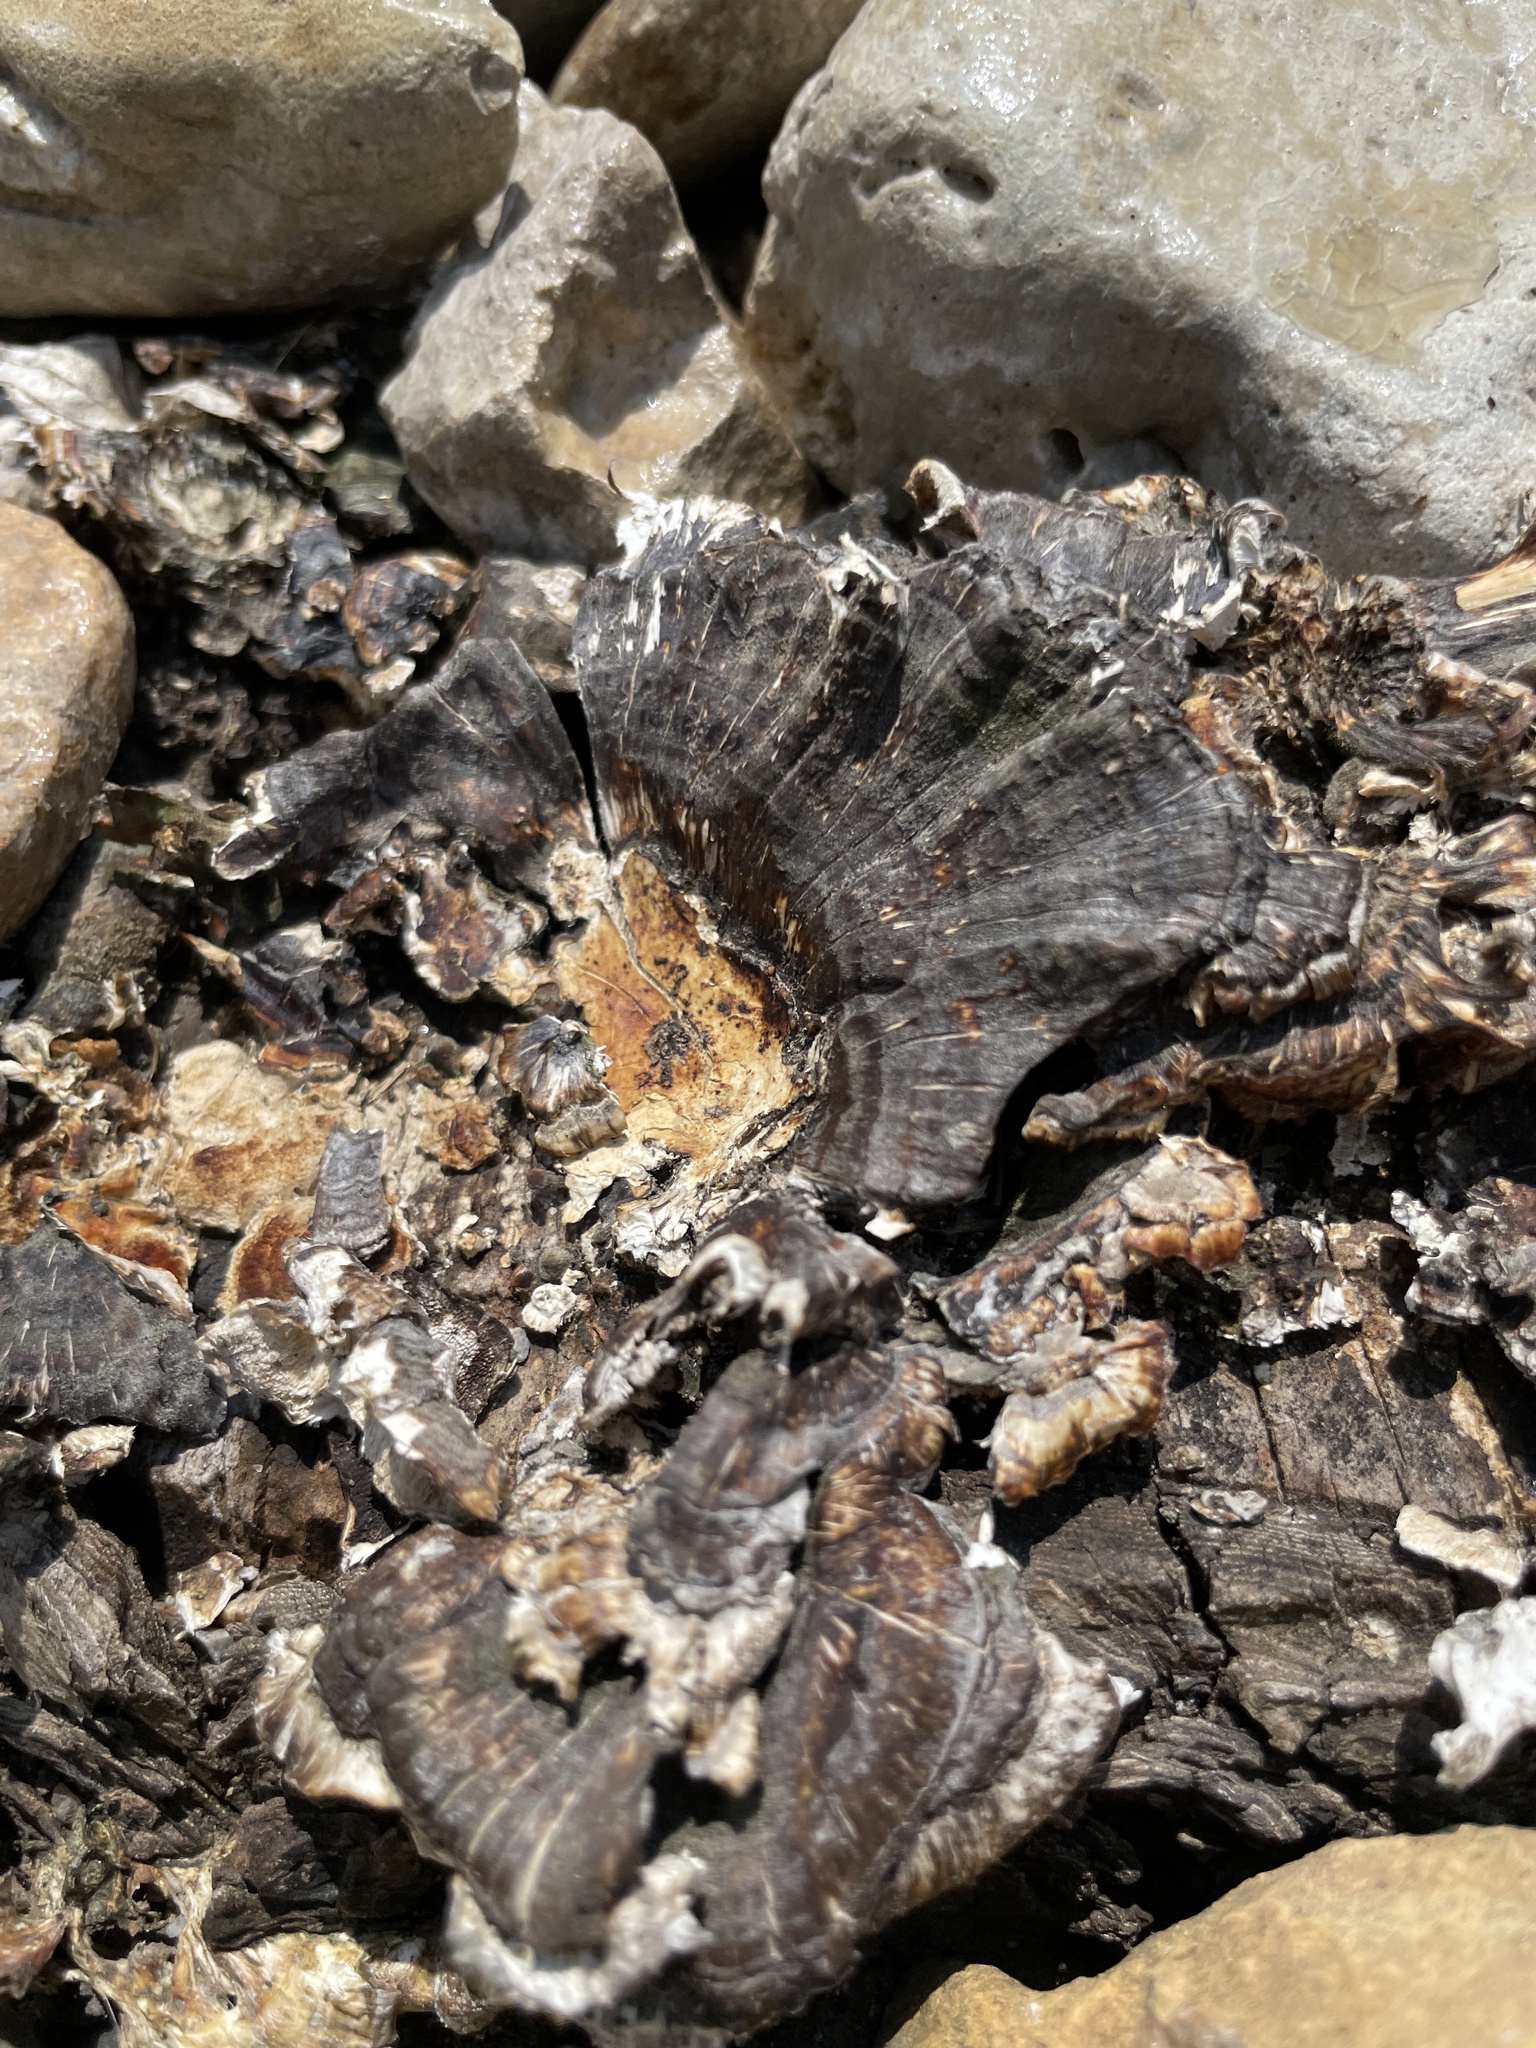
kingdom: Fungi
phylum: Basidiomycota
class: Agaricomycetes
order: Polyporales
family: Polyporaceae
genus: Trametes
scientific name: Trametes versicolor
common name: Turkeytail
